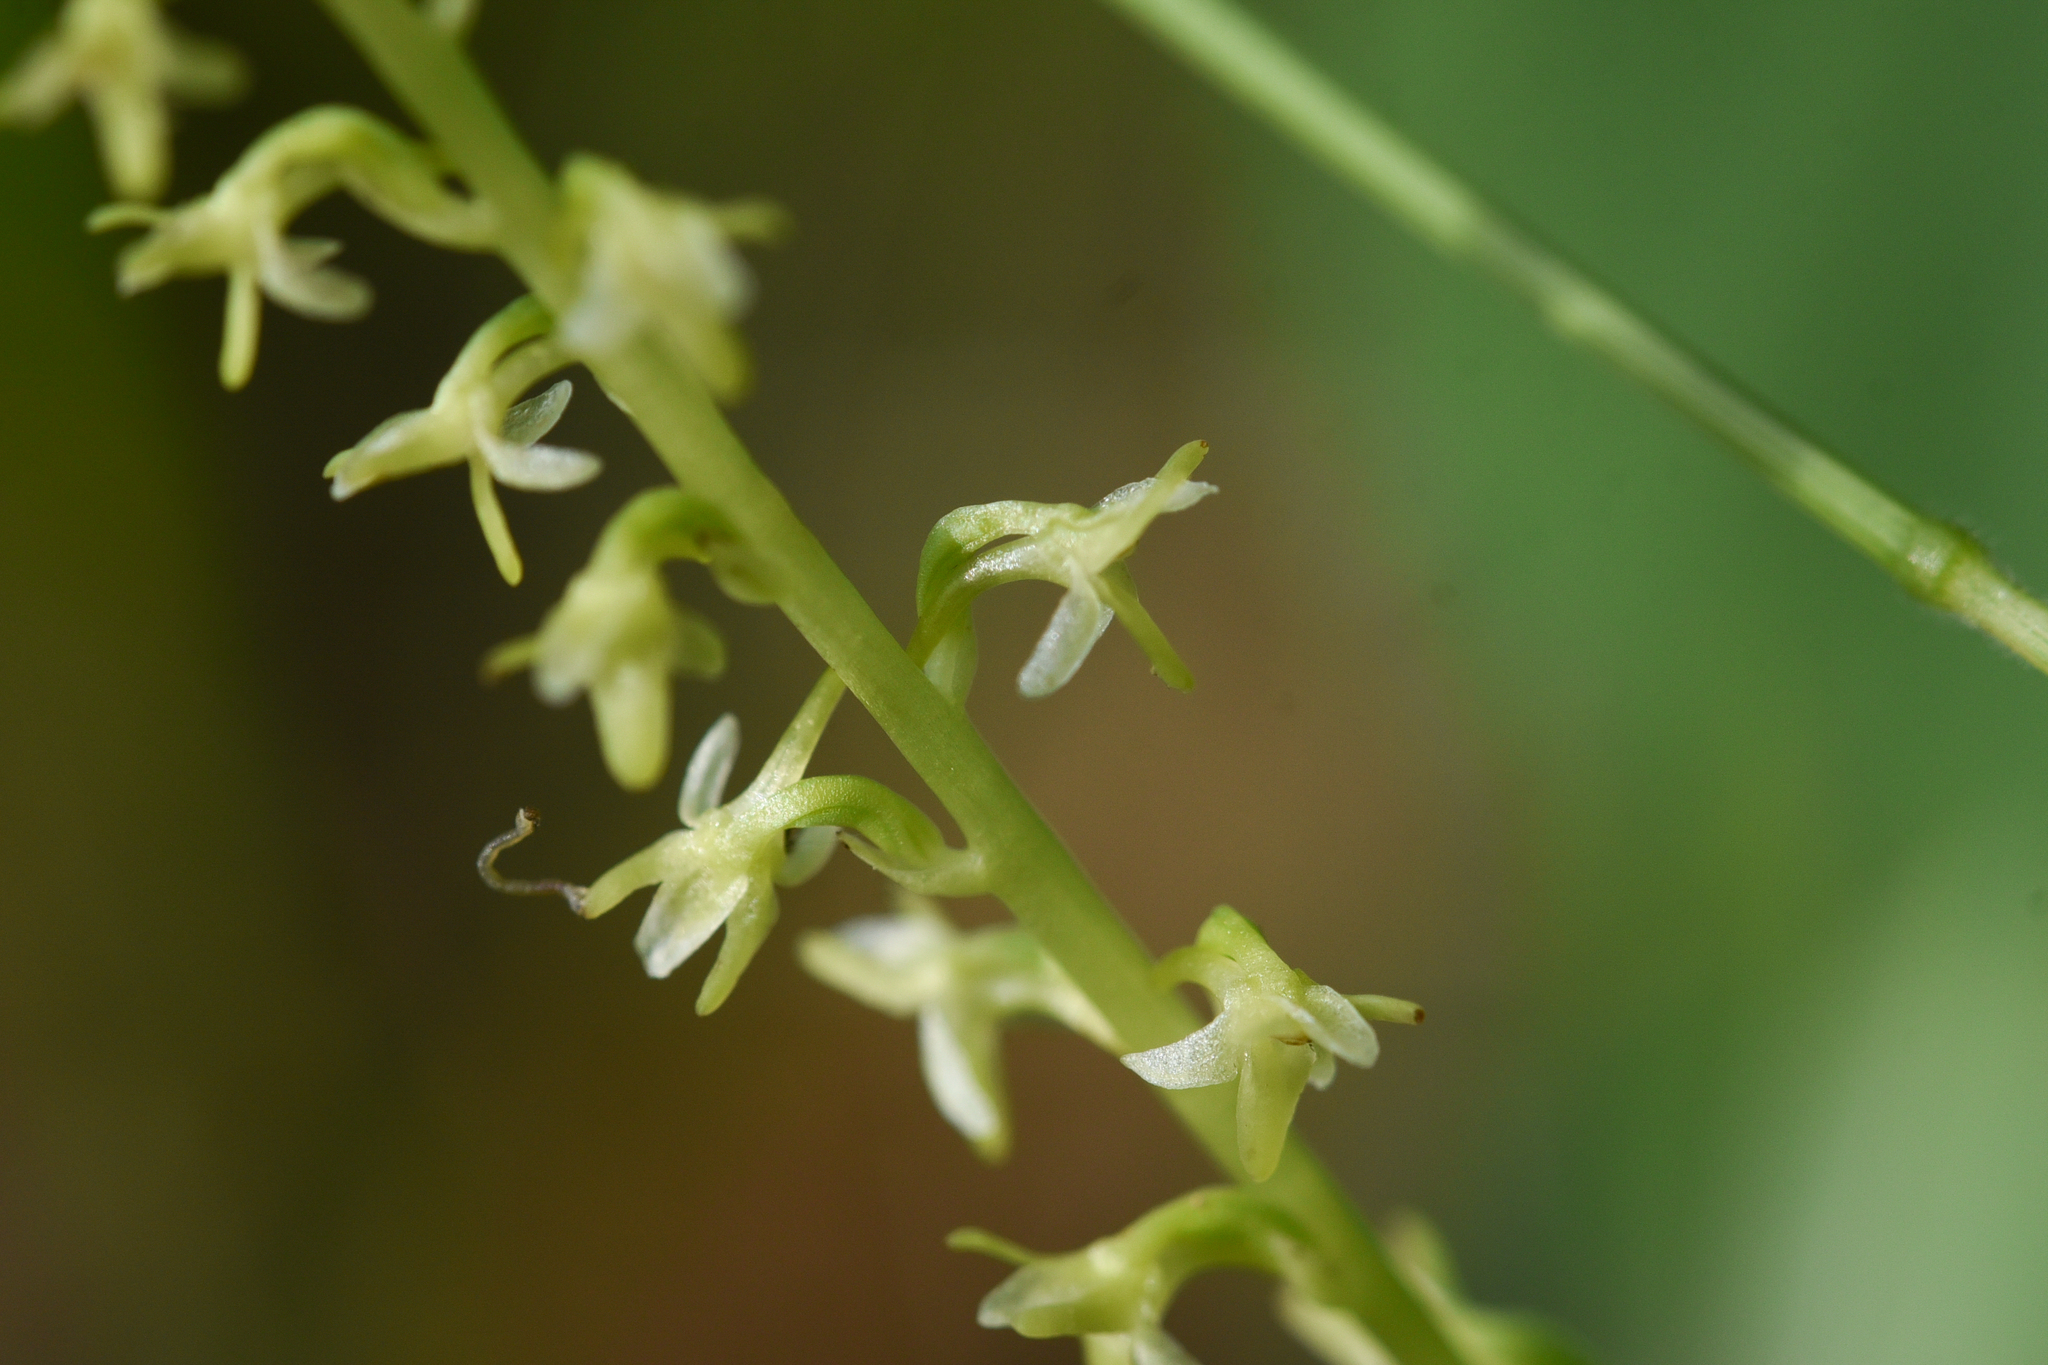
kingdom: Plantae
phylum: Tracheophyta
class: Liliopsida
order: Asparagales
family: Orchidaceae
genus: Platanthera
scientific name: Platanthera unalascensis
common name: Alaska bog orchid
